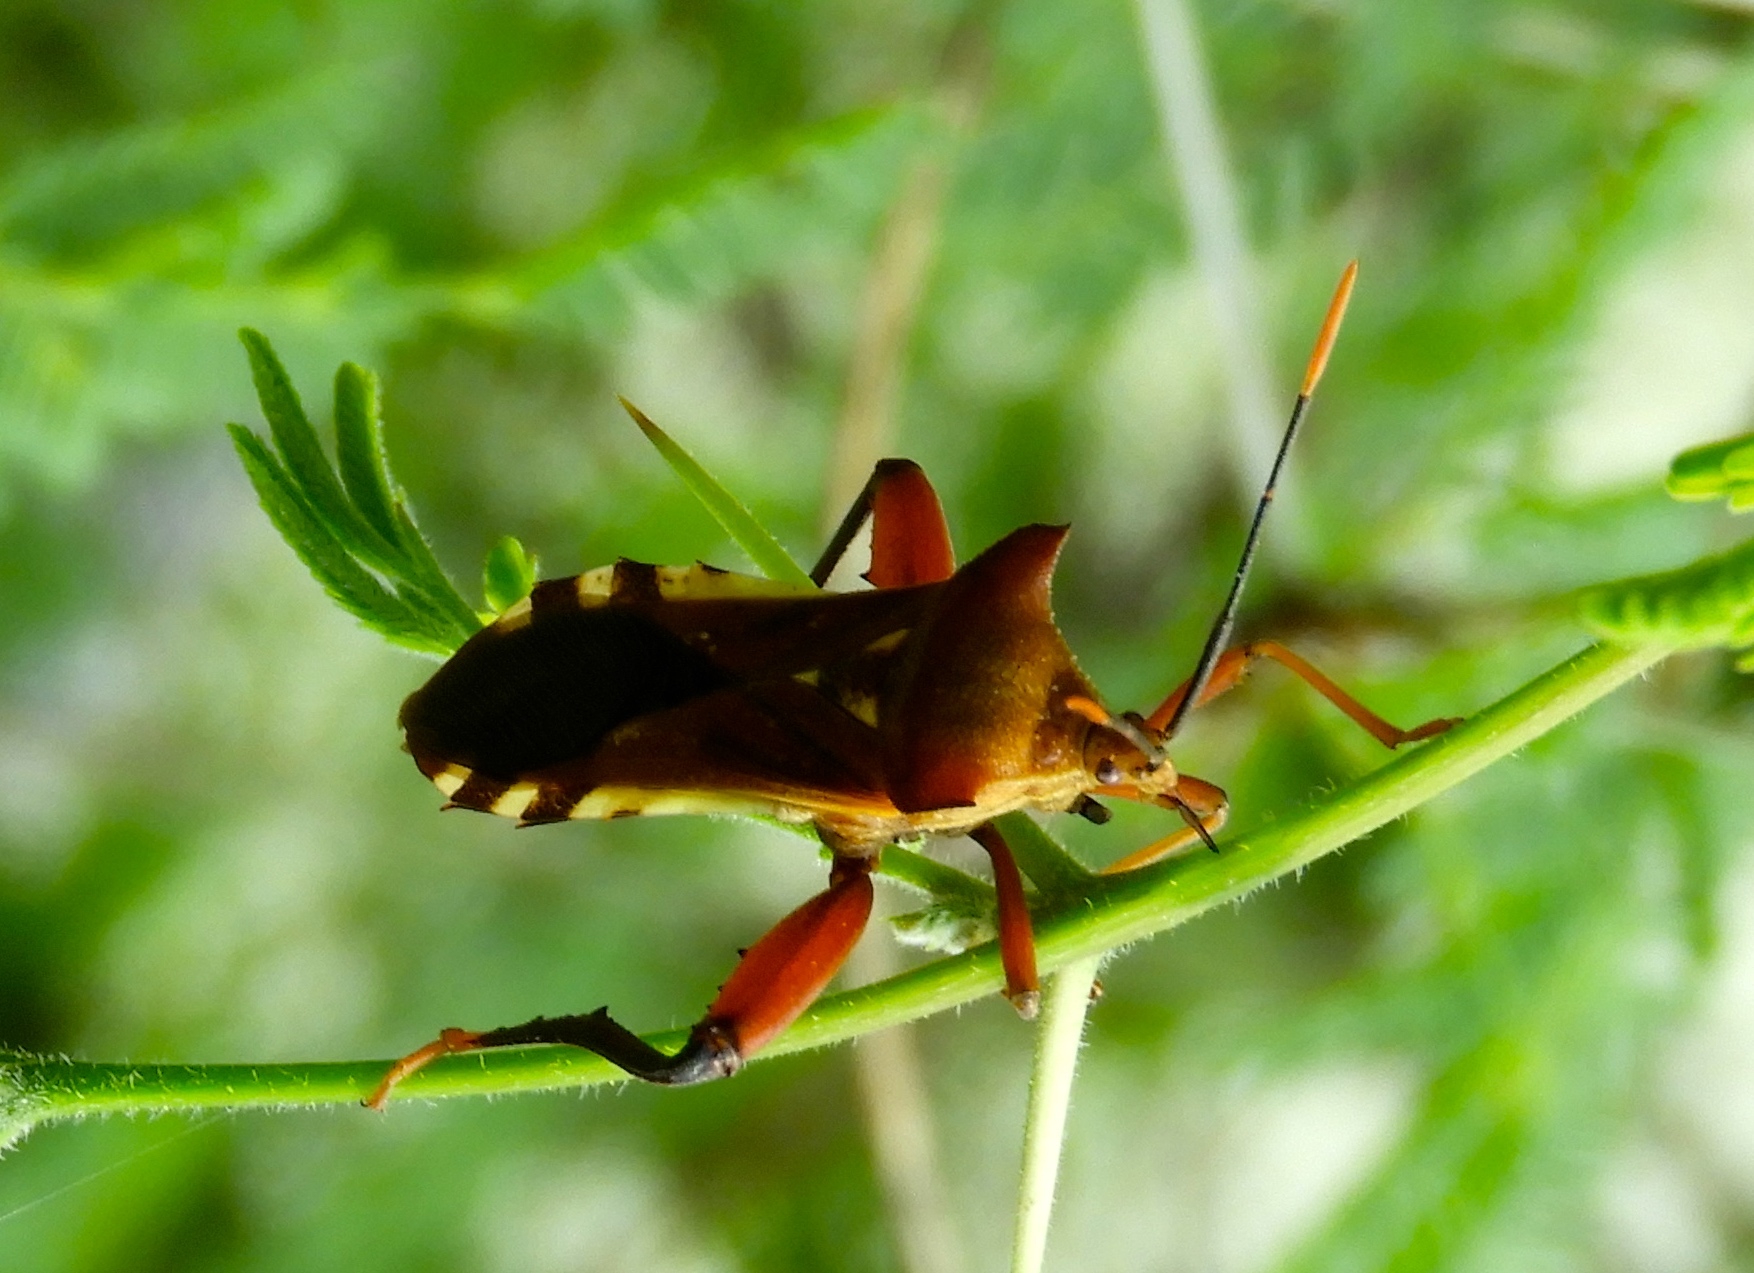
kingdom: Animalia
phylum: Arthropoda
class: Insecta
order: Hemiptera
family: Coreidae
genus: Mozena
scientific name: Mozena
